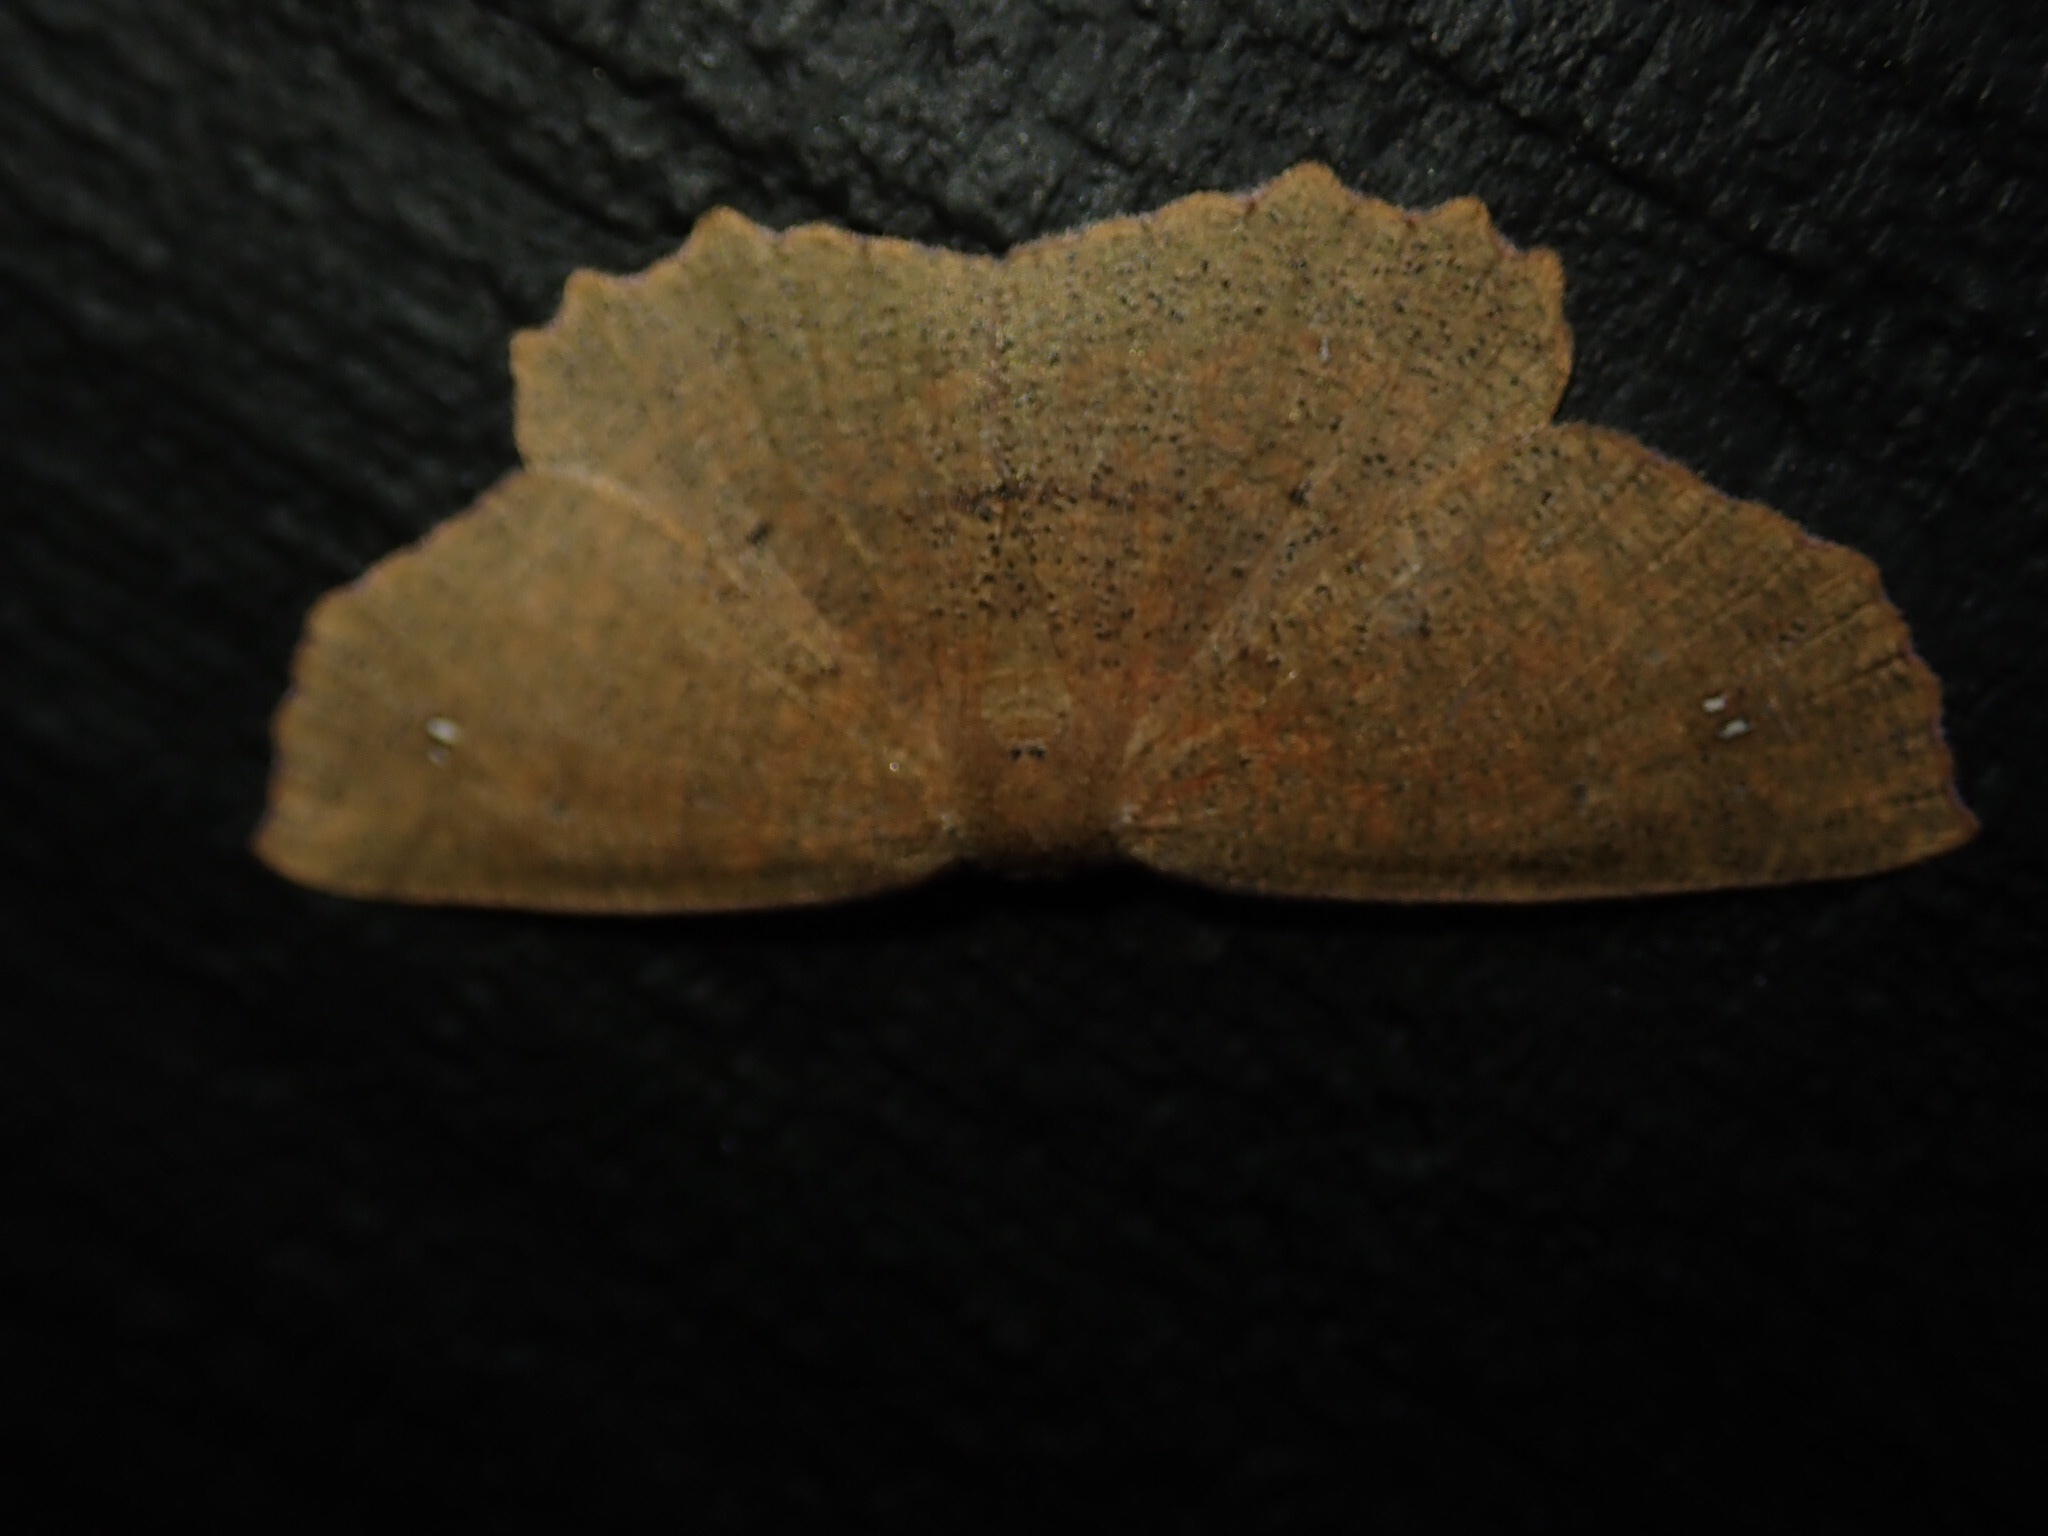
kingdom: Animalia
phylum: Arthropoda
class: Insecta
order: Lepidoptera
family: Geometridae
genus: Xyridacma
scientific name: Xyridacma ustaria
